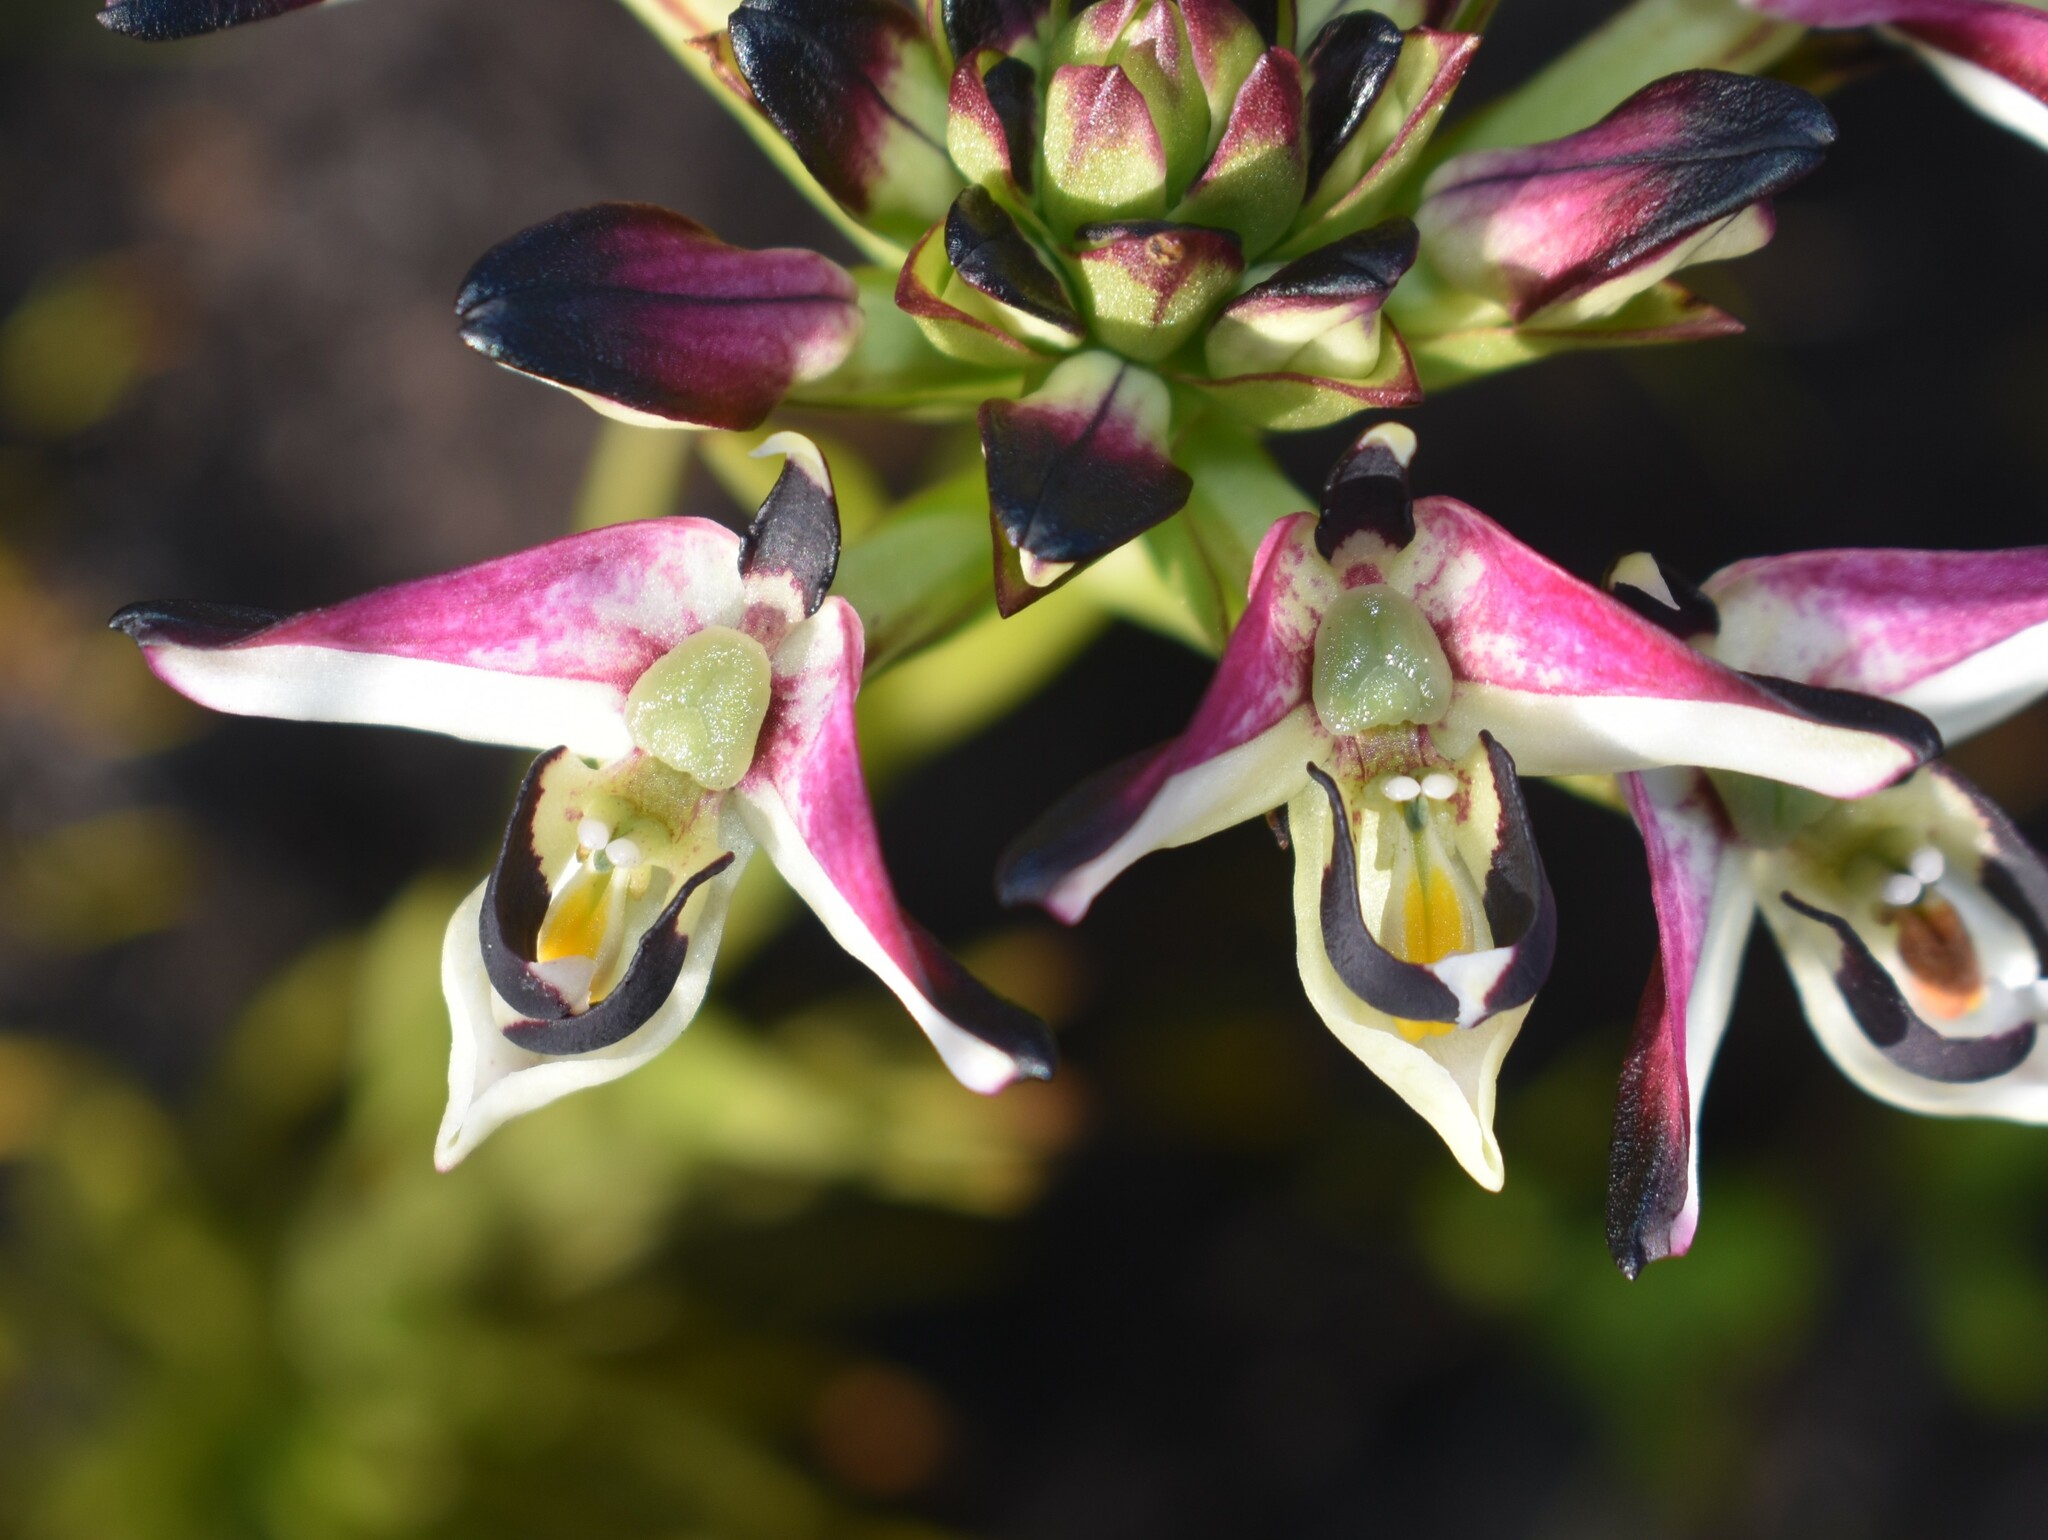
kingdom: Plantae
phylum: Tracheophyta
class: Liliopsida
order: Asparagales
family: Orchidaceae
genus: Disa
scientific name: Disa atricapilla
